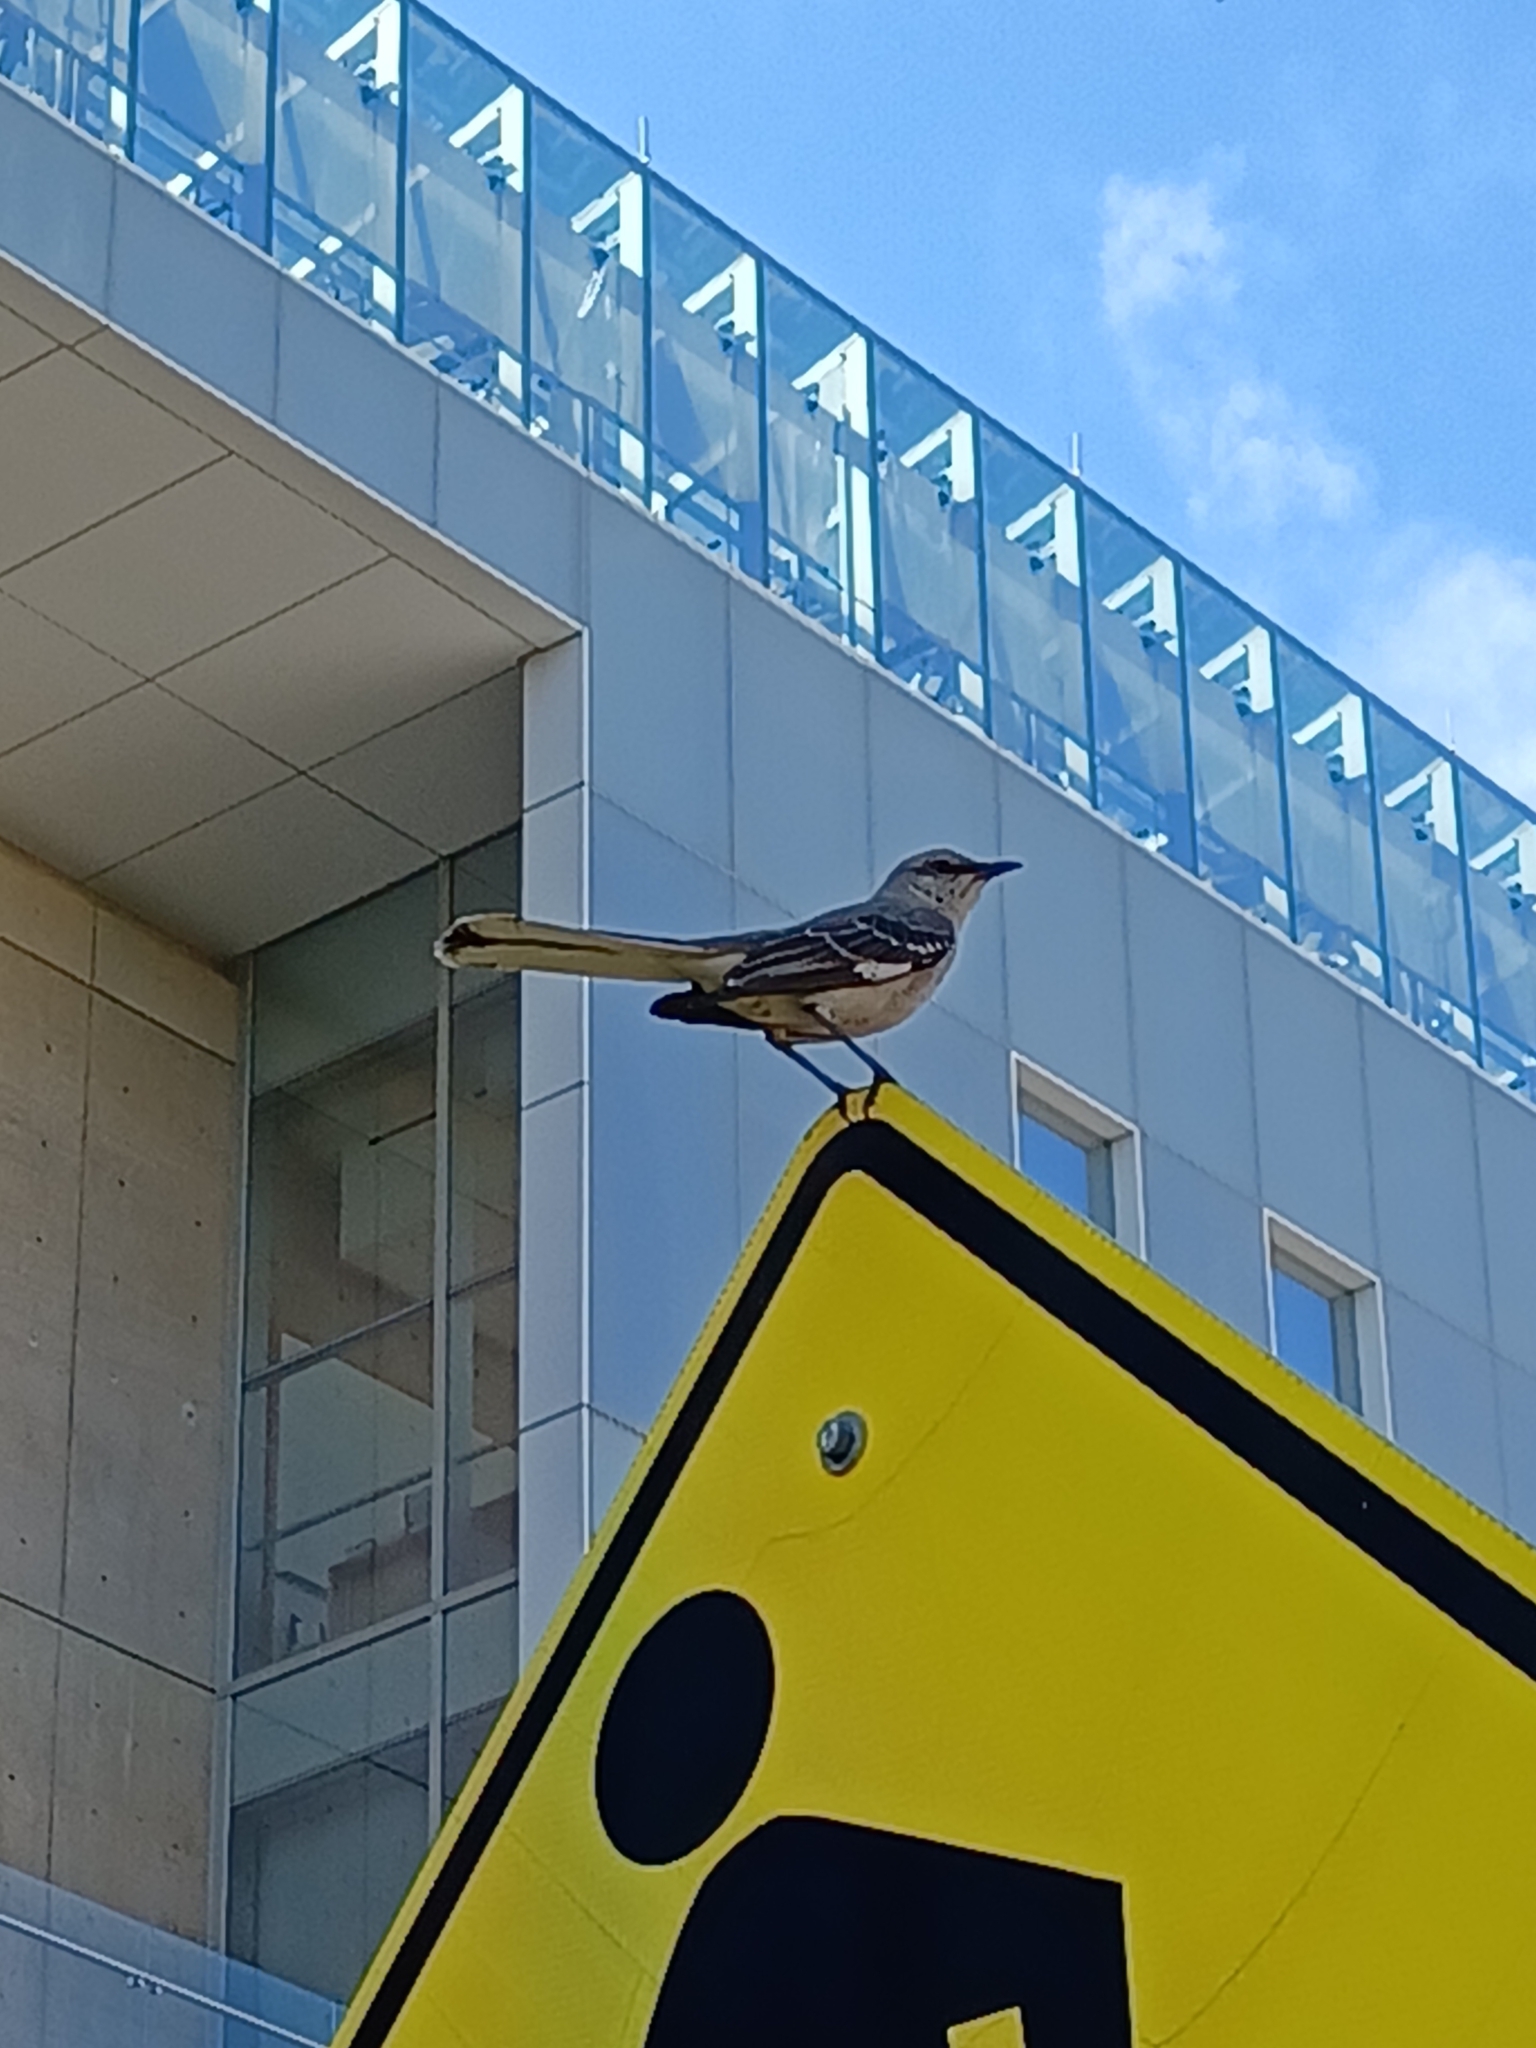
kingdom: Animalia
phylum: Chordata
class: Aves
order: Passeriformes
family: Mimidae
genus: Mimus
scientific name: Mimus polyglottos
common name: Northern mockingbird
